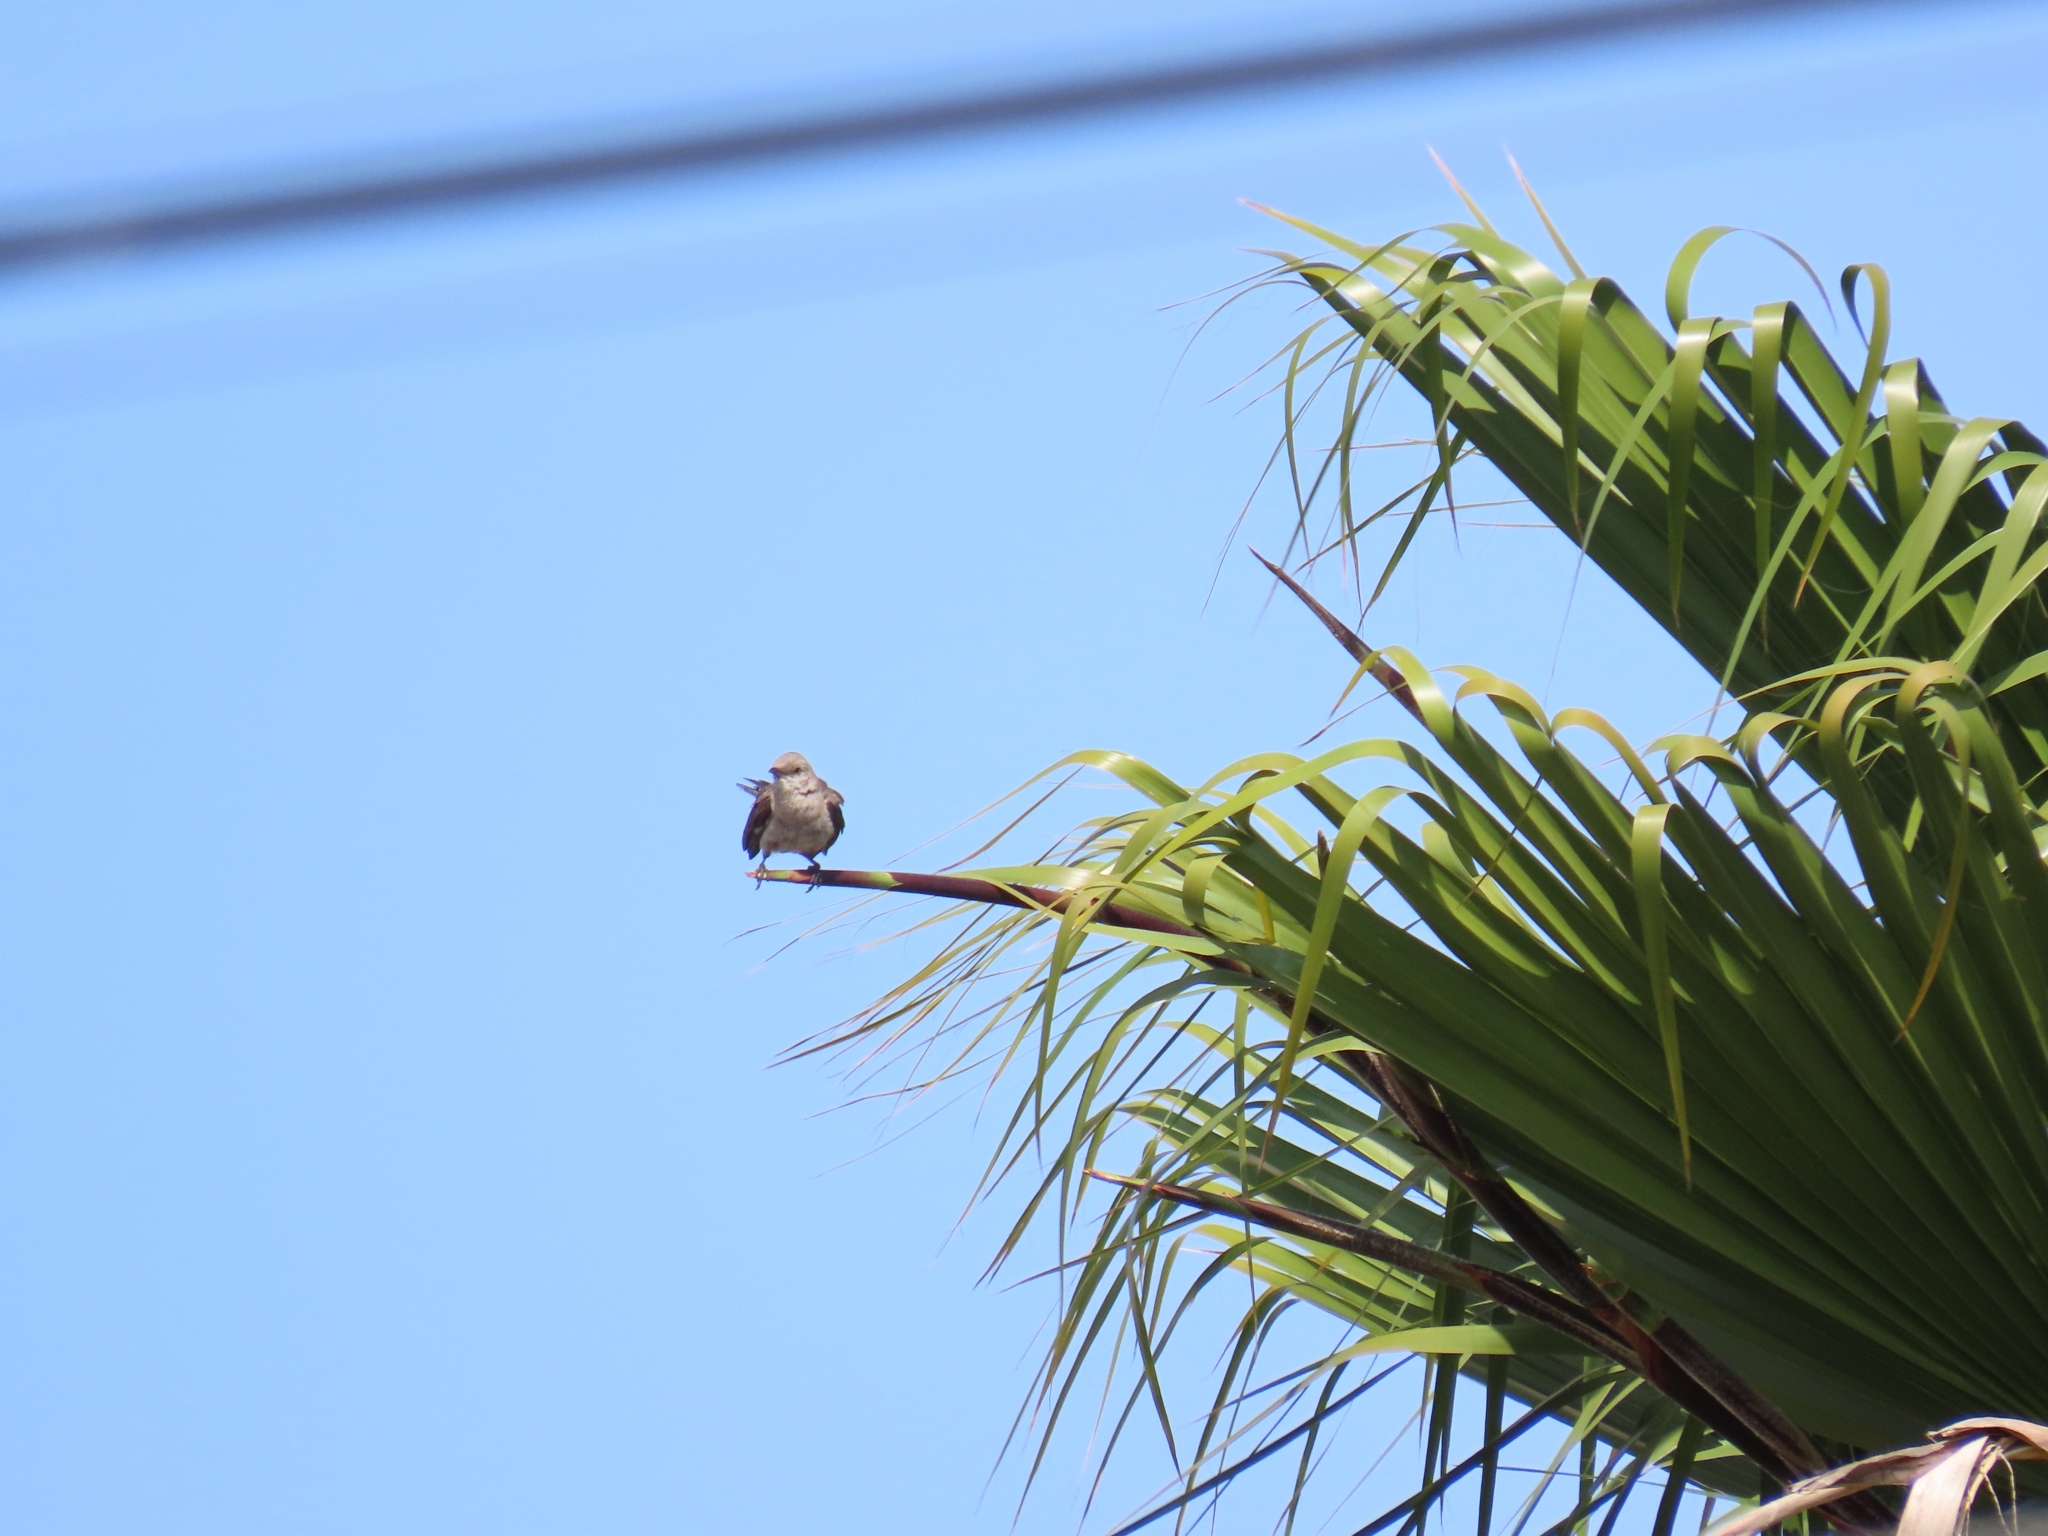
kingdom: Animalia
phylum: Chordata
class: Aves
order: Passeriformes
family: Mimidae
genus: Mimus
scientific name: Mimus polyglottos
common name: Northern mockingbird
